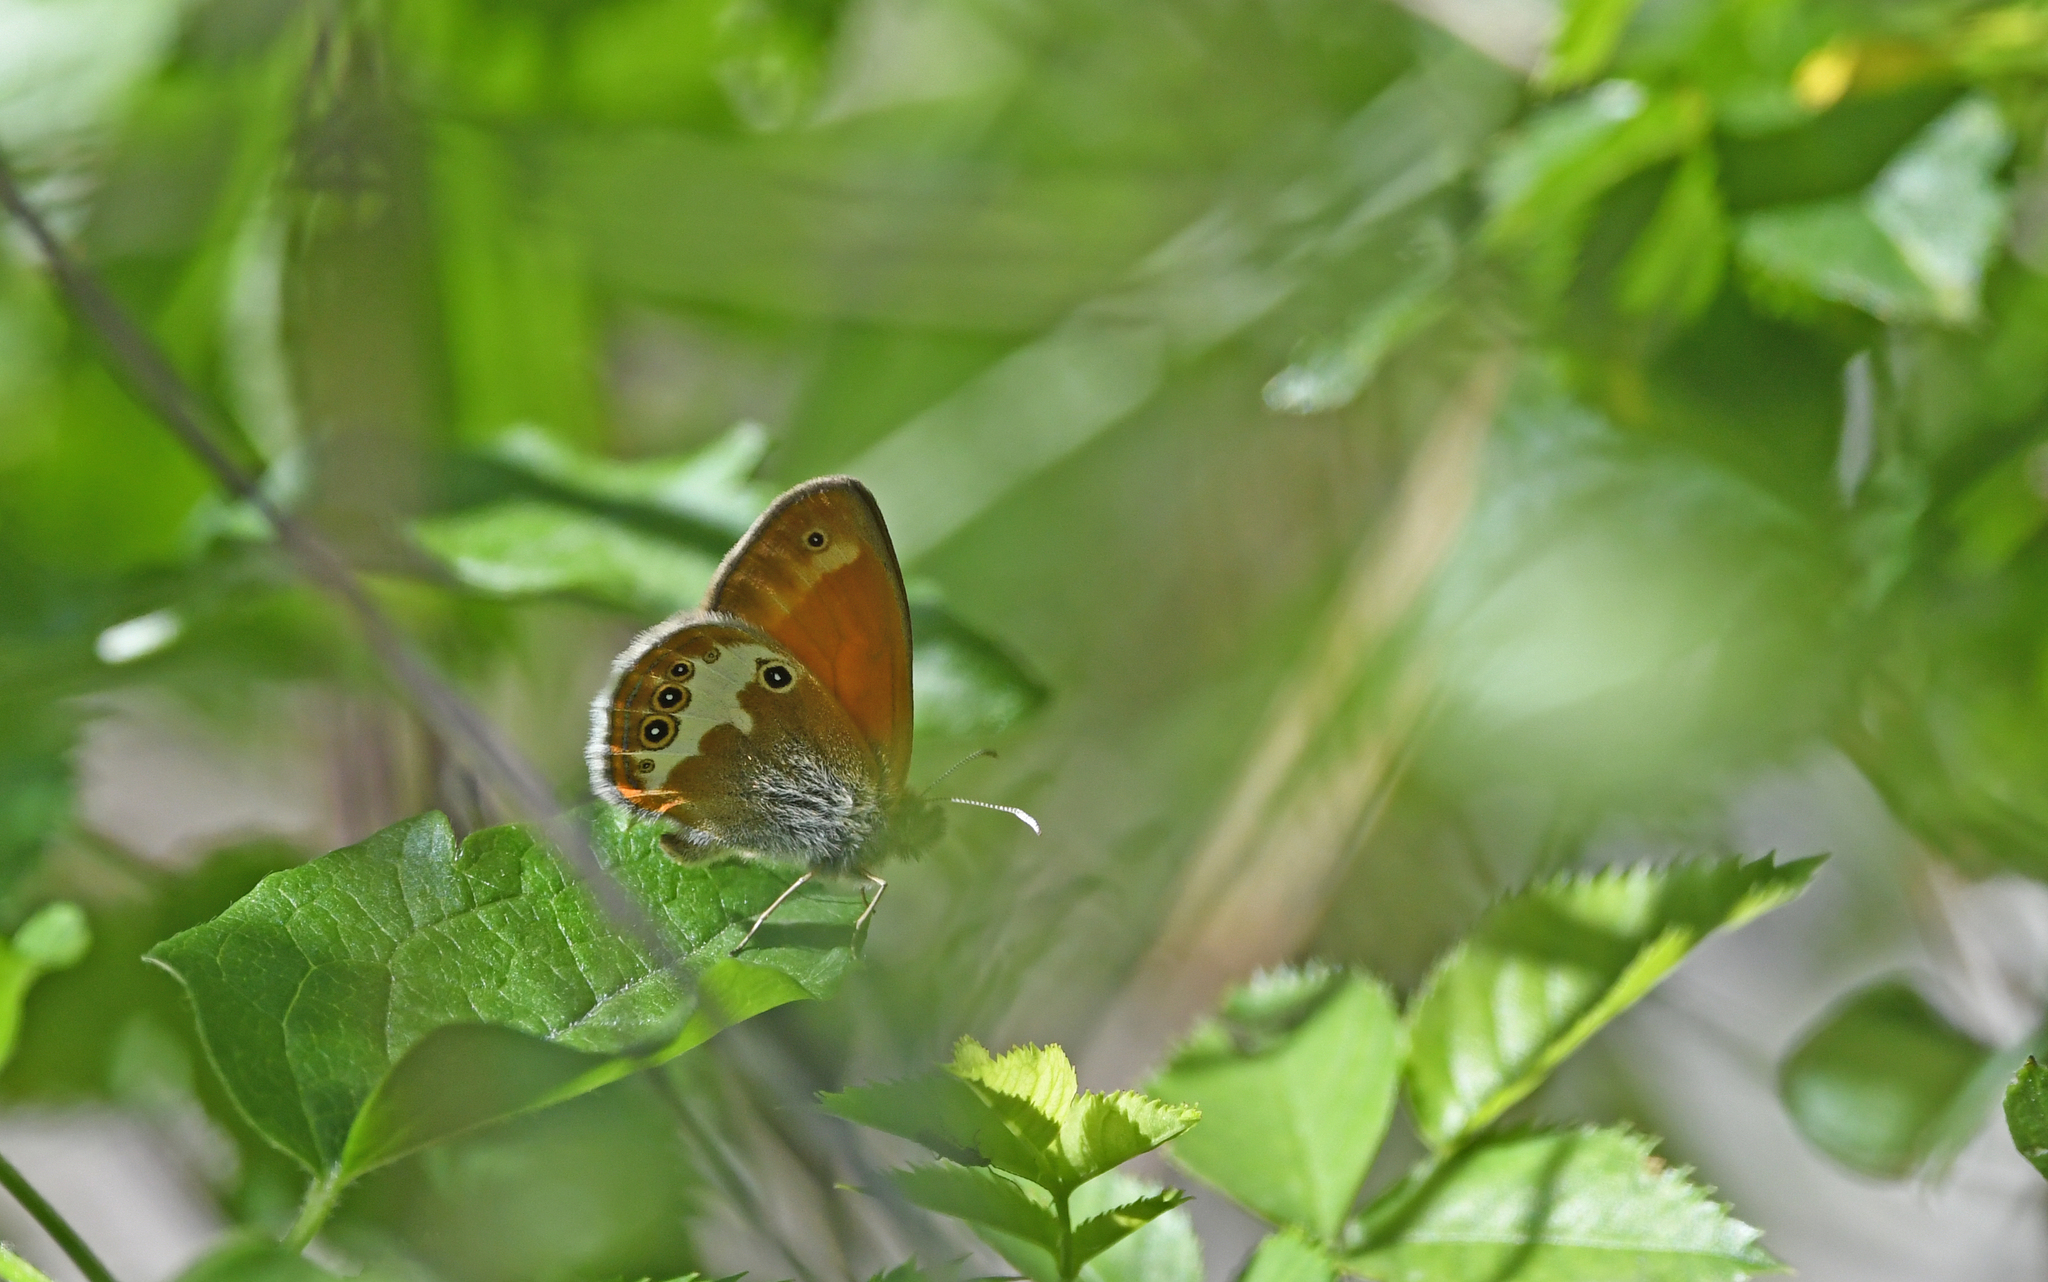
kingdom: Animalia
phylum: Arthropoda
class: Insecta
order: Lepidoptera
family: Nymphalidae
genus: Coenonympha
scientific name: Coenonympha arcania
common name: Pearly heath
